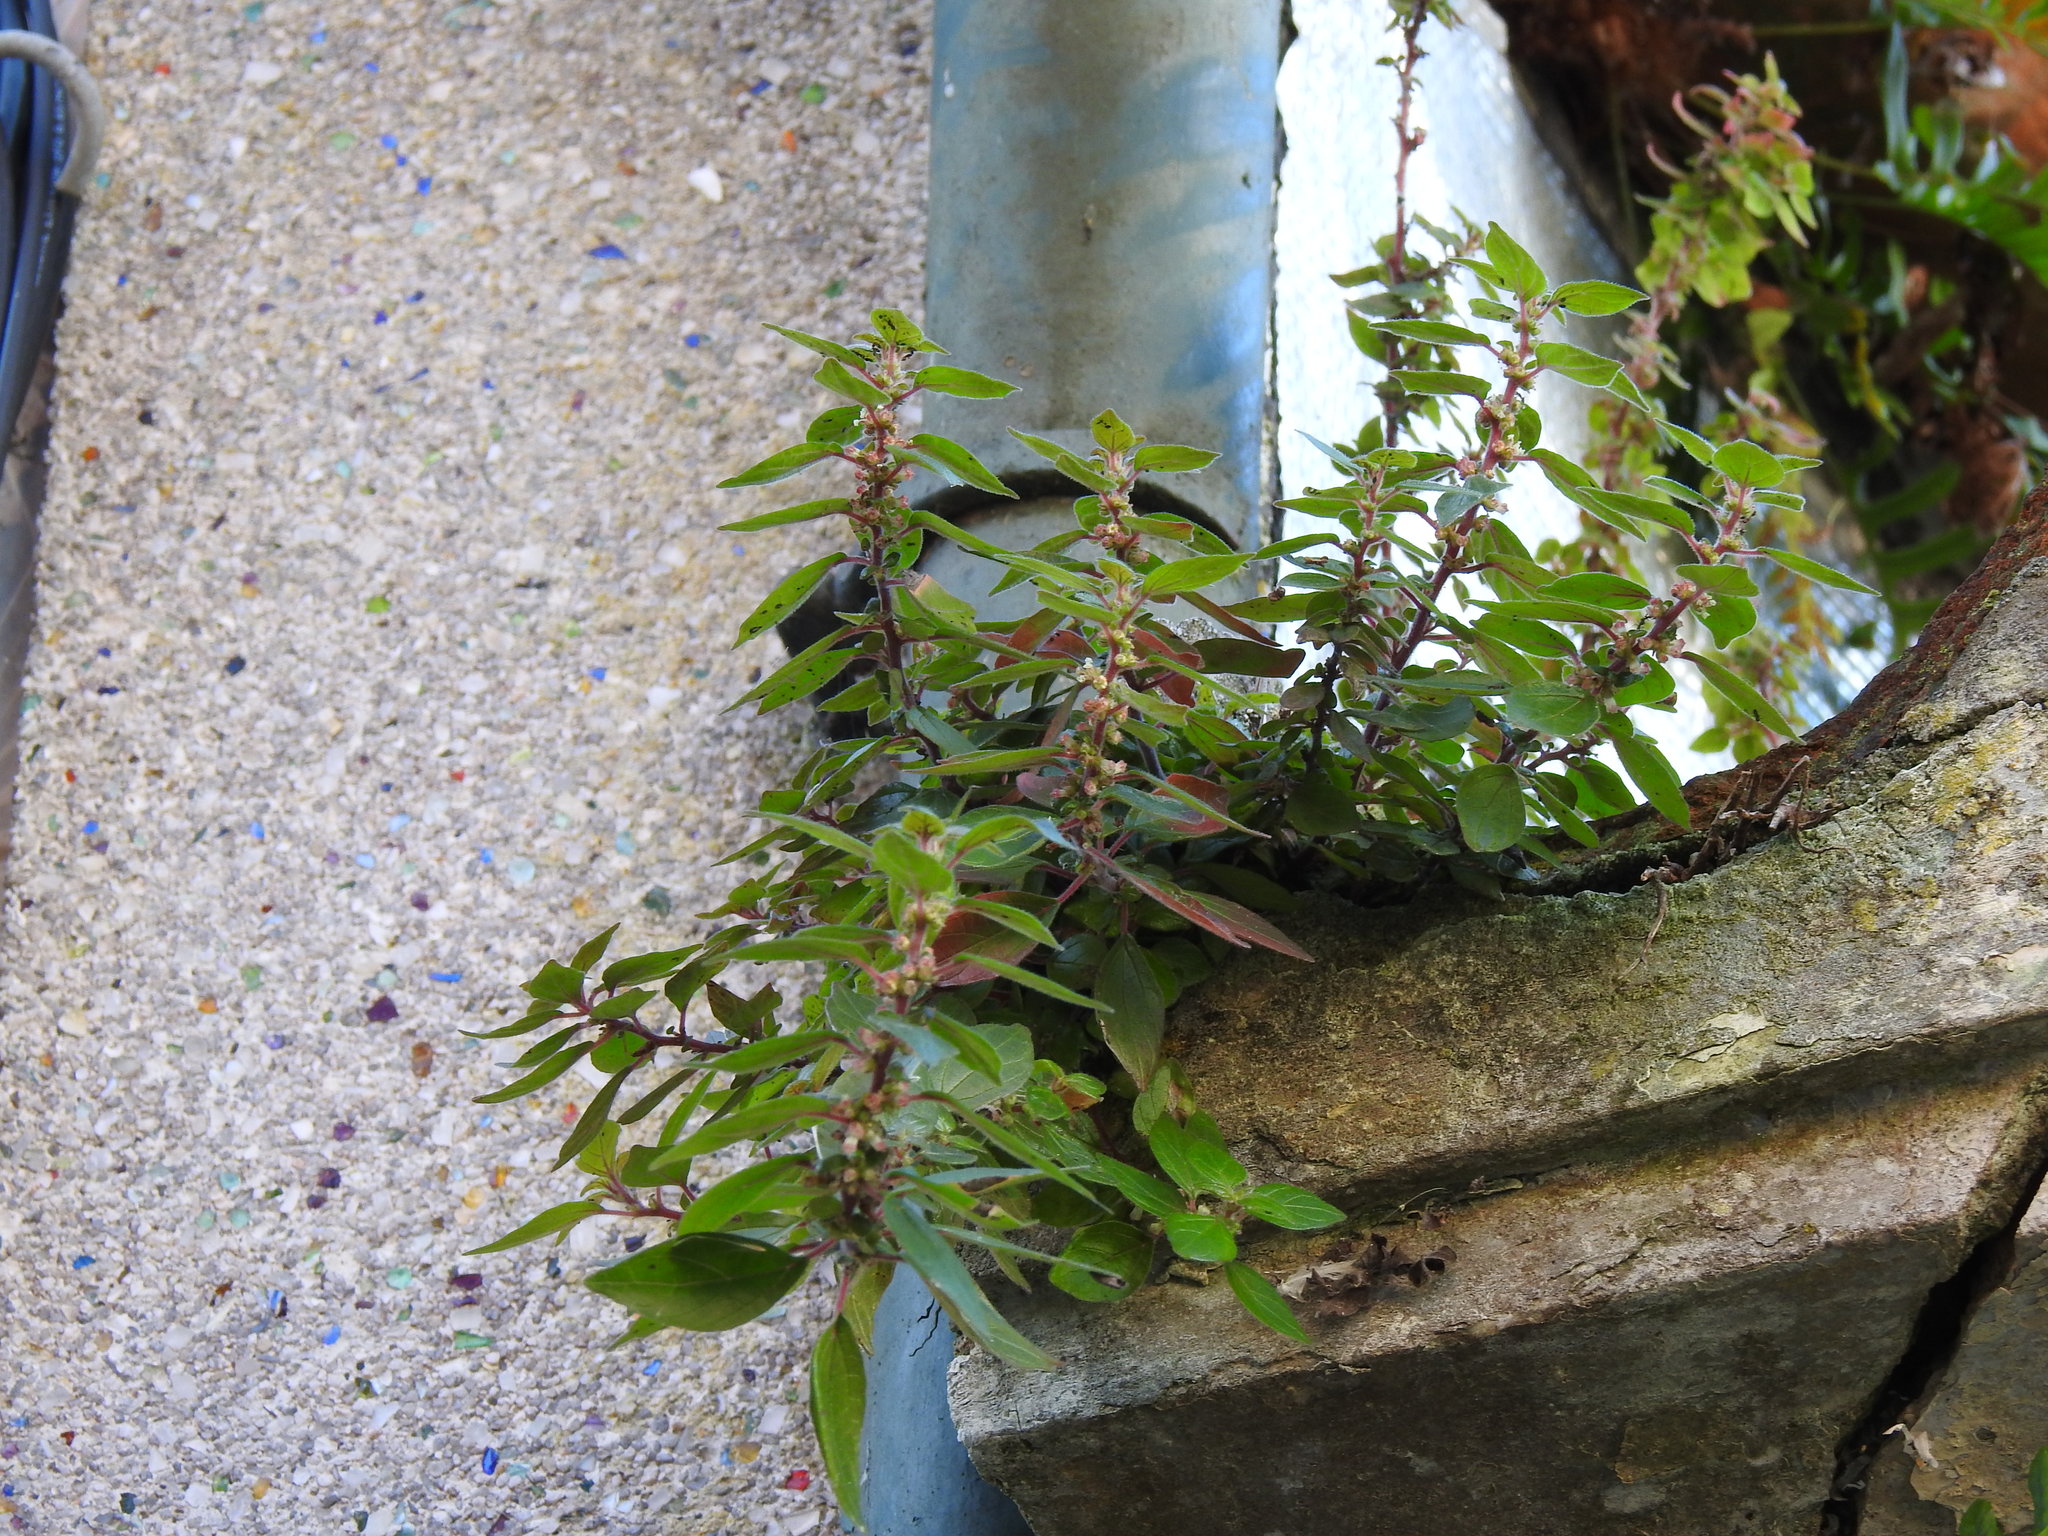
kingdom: Plantae
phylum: Tracheophyta
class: Magnoliopsida
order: Rosales
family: Urticaceae
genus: Parietaria
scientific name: Parietaria judaica
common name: Pellitory-of-the-wall
